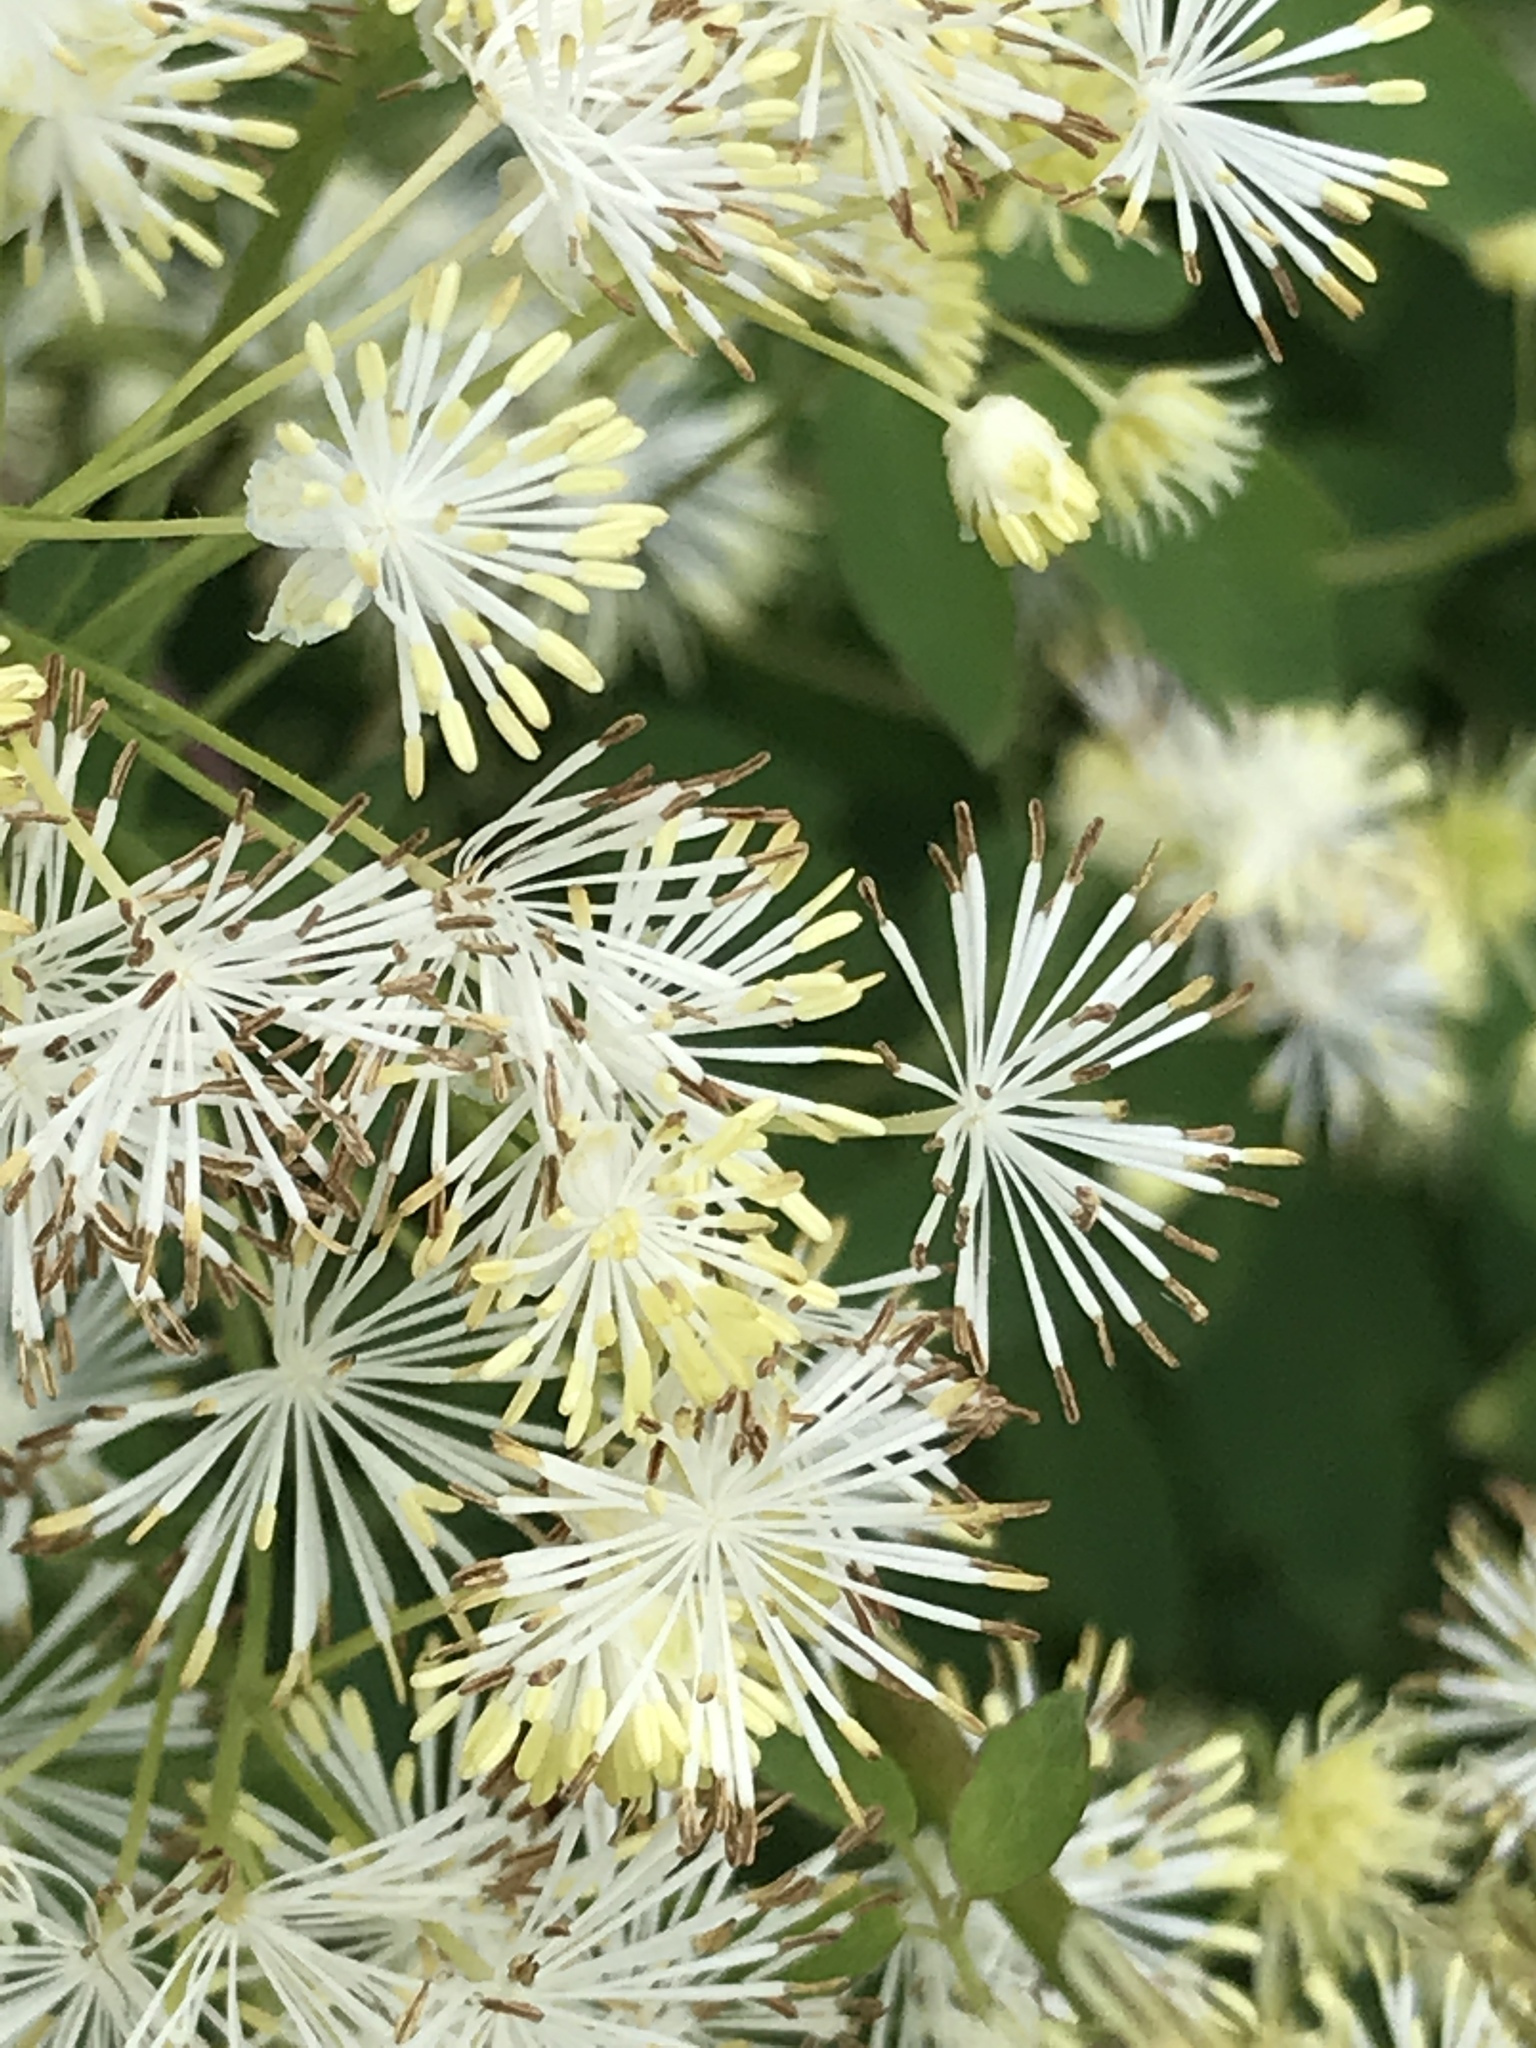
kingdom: Plantae
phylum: Tracheophyta
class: Magnoliopsida
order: Ranunculales
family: Ranunculaceae
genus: Thalictrum
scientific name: Thalictrum pubescens
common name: King-of-the-meadow
